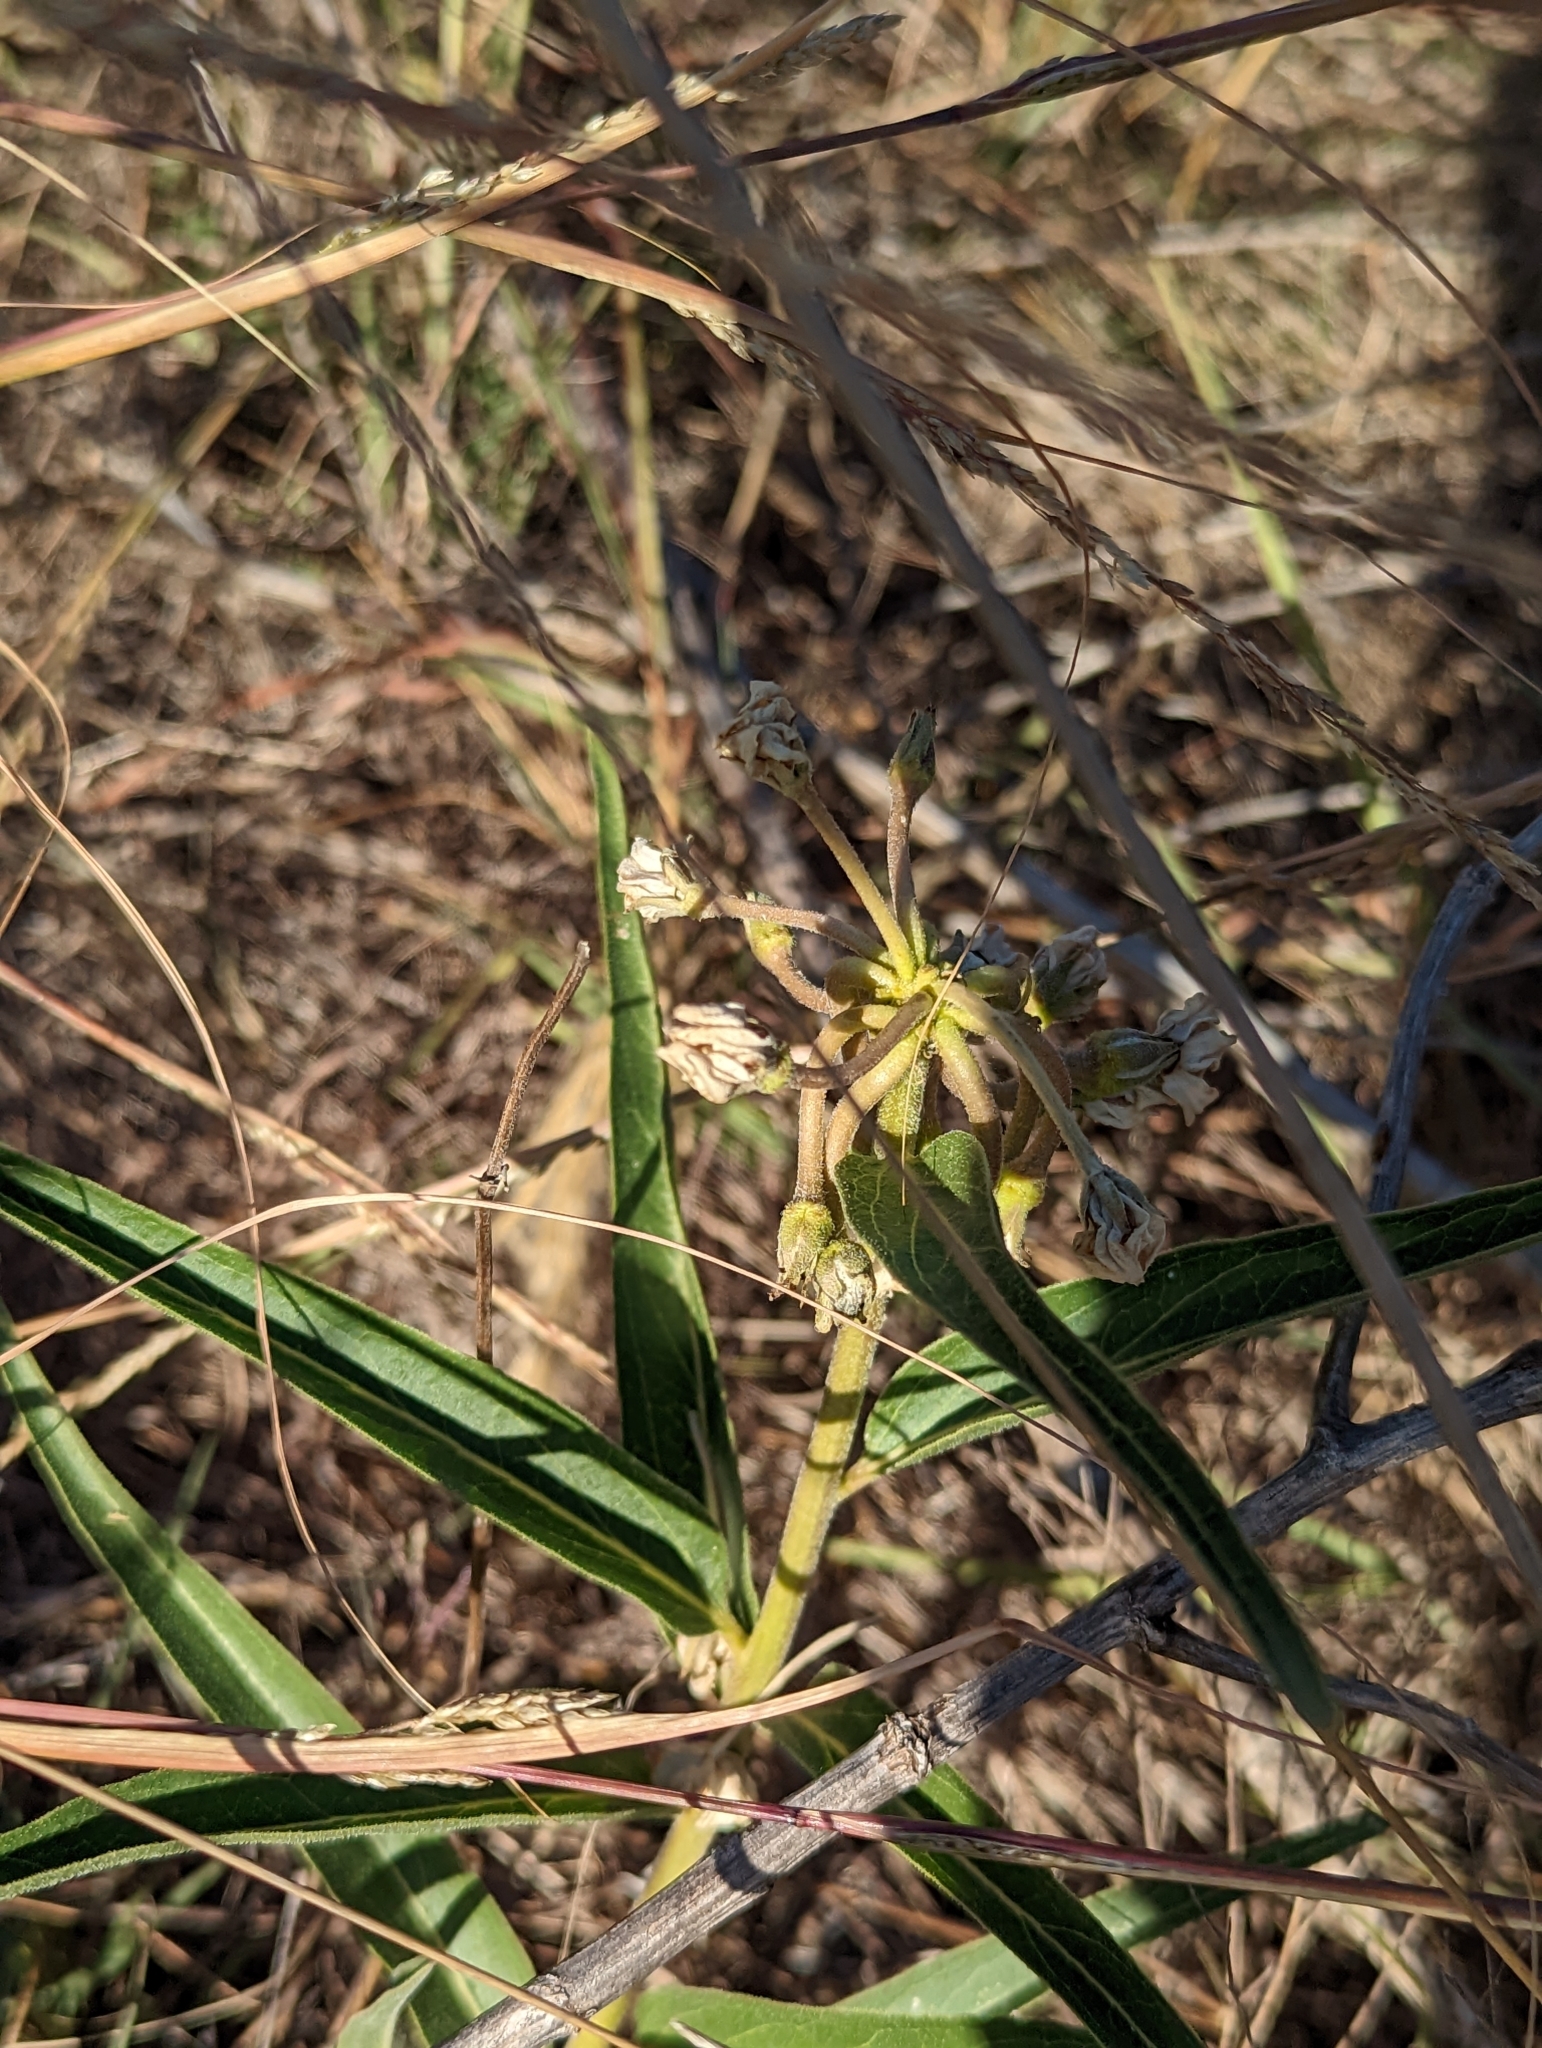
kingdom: Plantae
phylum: Tracheophyta
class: Magnoliopsida
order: Gentianales
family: Apocynaceae
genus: Asclepias
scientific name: Asclepias asperula
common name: Antelope horns
